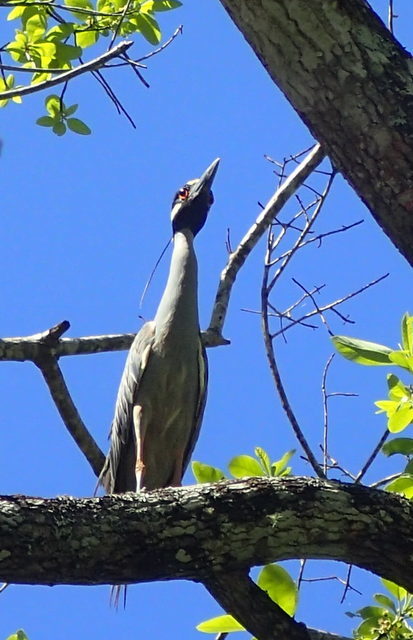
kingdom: Animalia
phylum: Chordata
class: Aves
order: Pelecaniformes
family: Ardeidae
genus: Nyctanassa
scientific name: Nyctanassa violacea
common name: Yellow-crowned night heron
